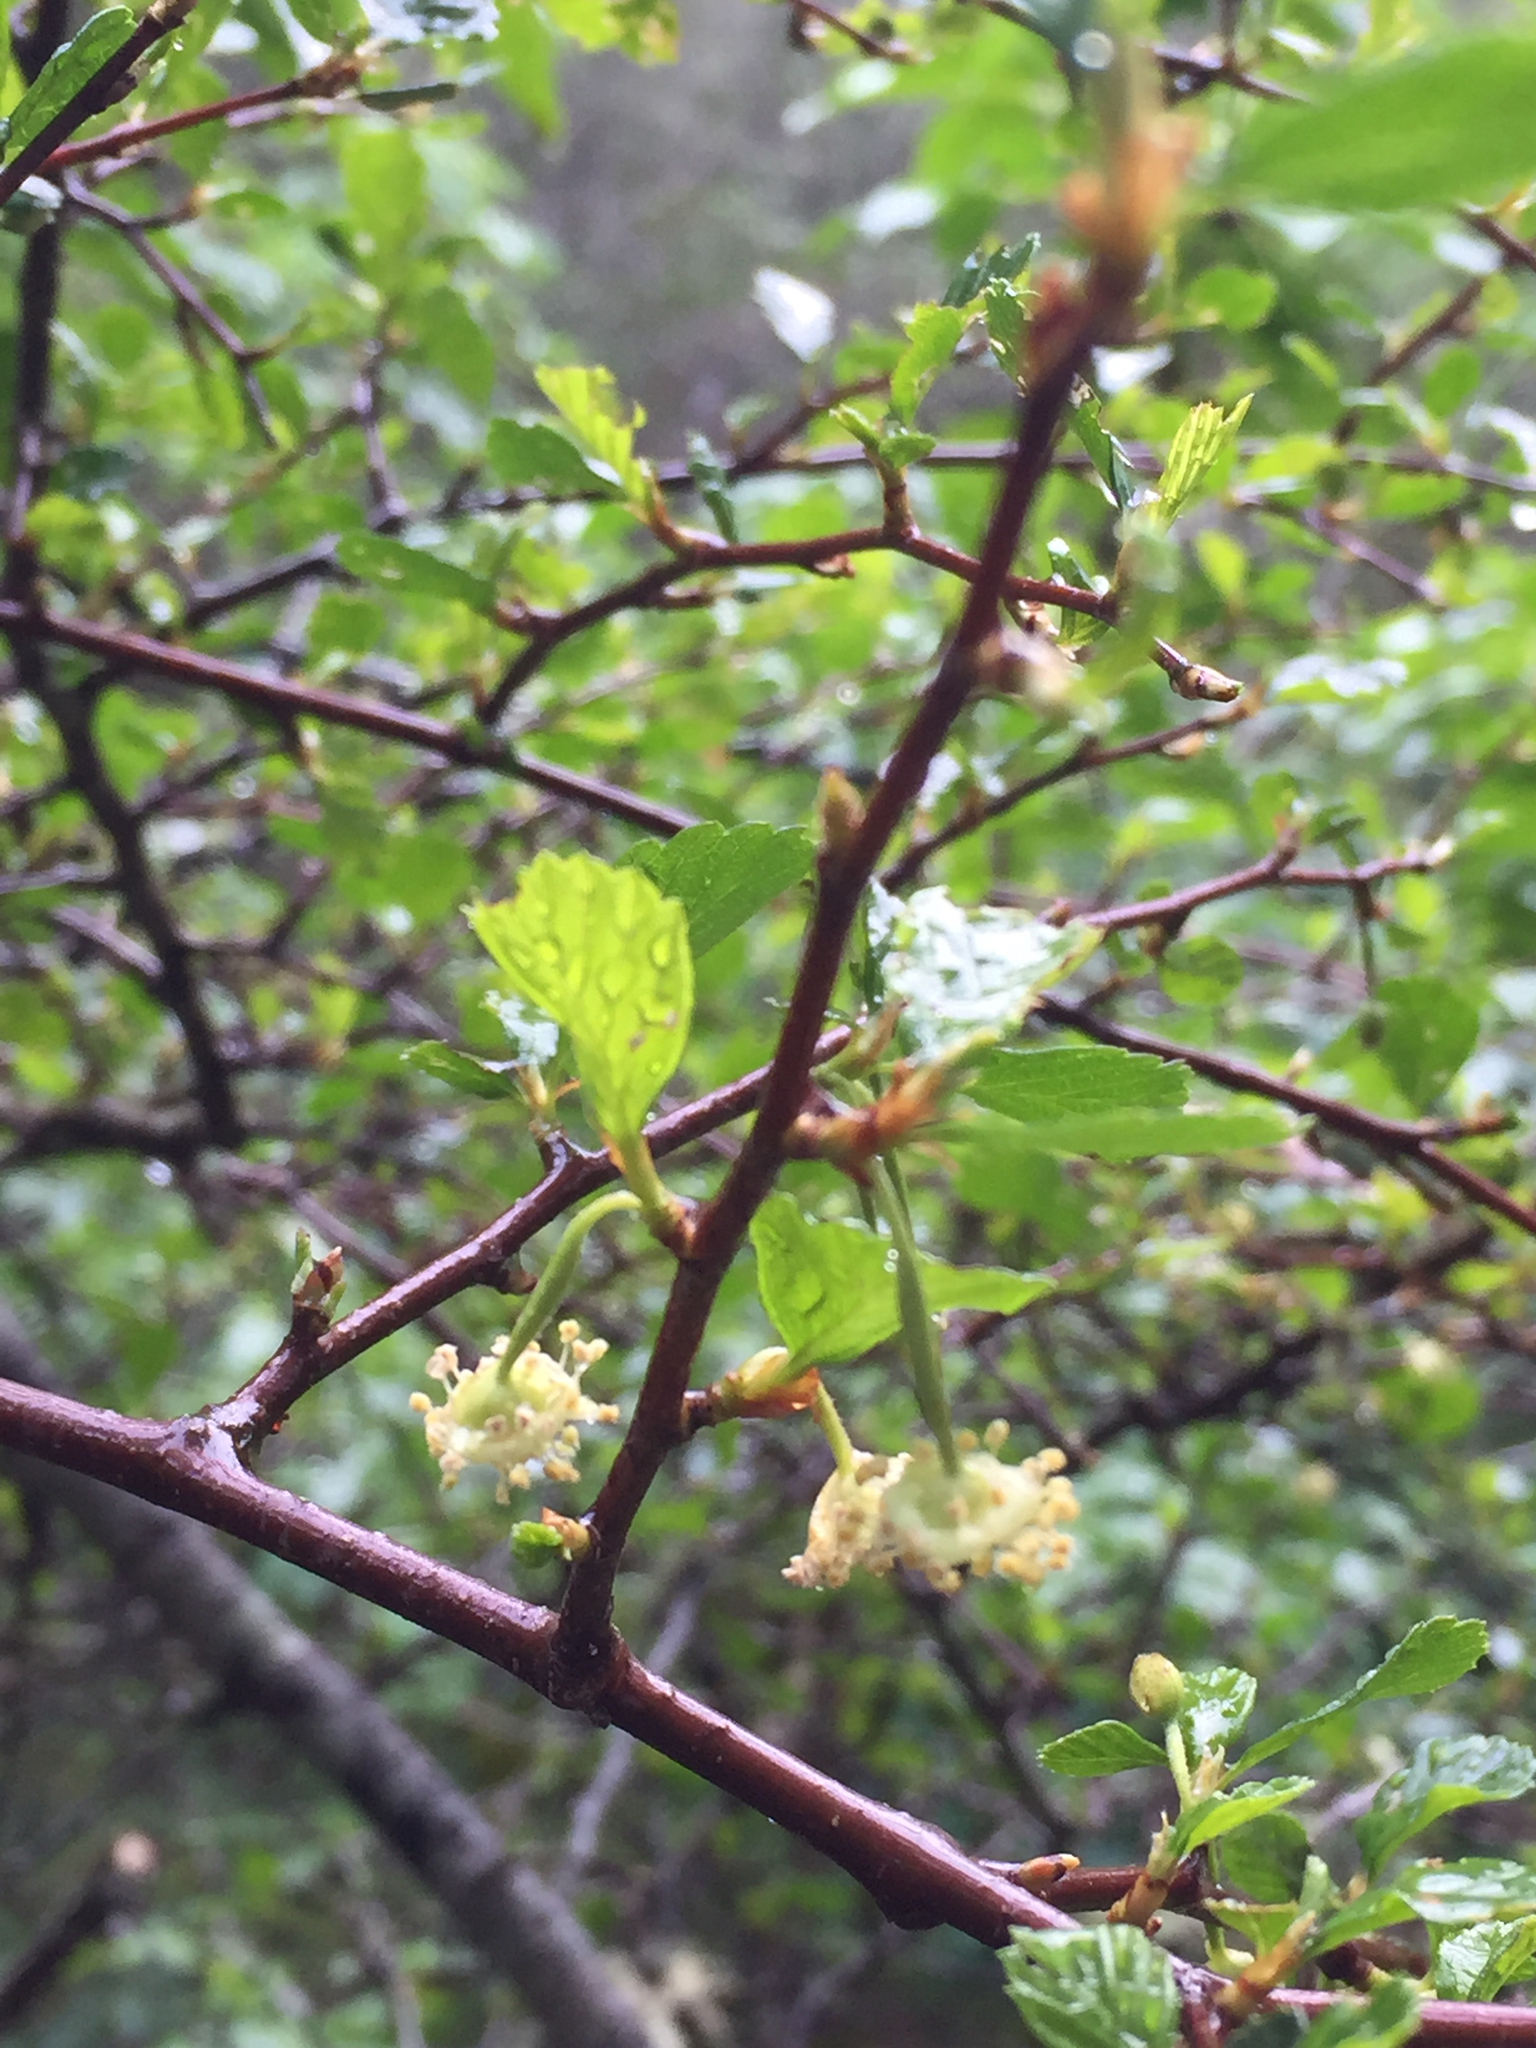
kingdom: Plantae
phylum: Tracheophyta
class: Magnoliopsida
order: Rosales
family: Rosaceae
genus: Cercocarpus
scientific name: Cercocarpus betuloides
